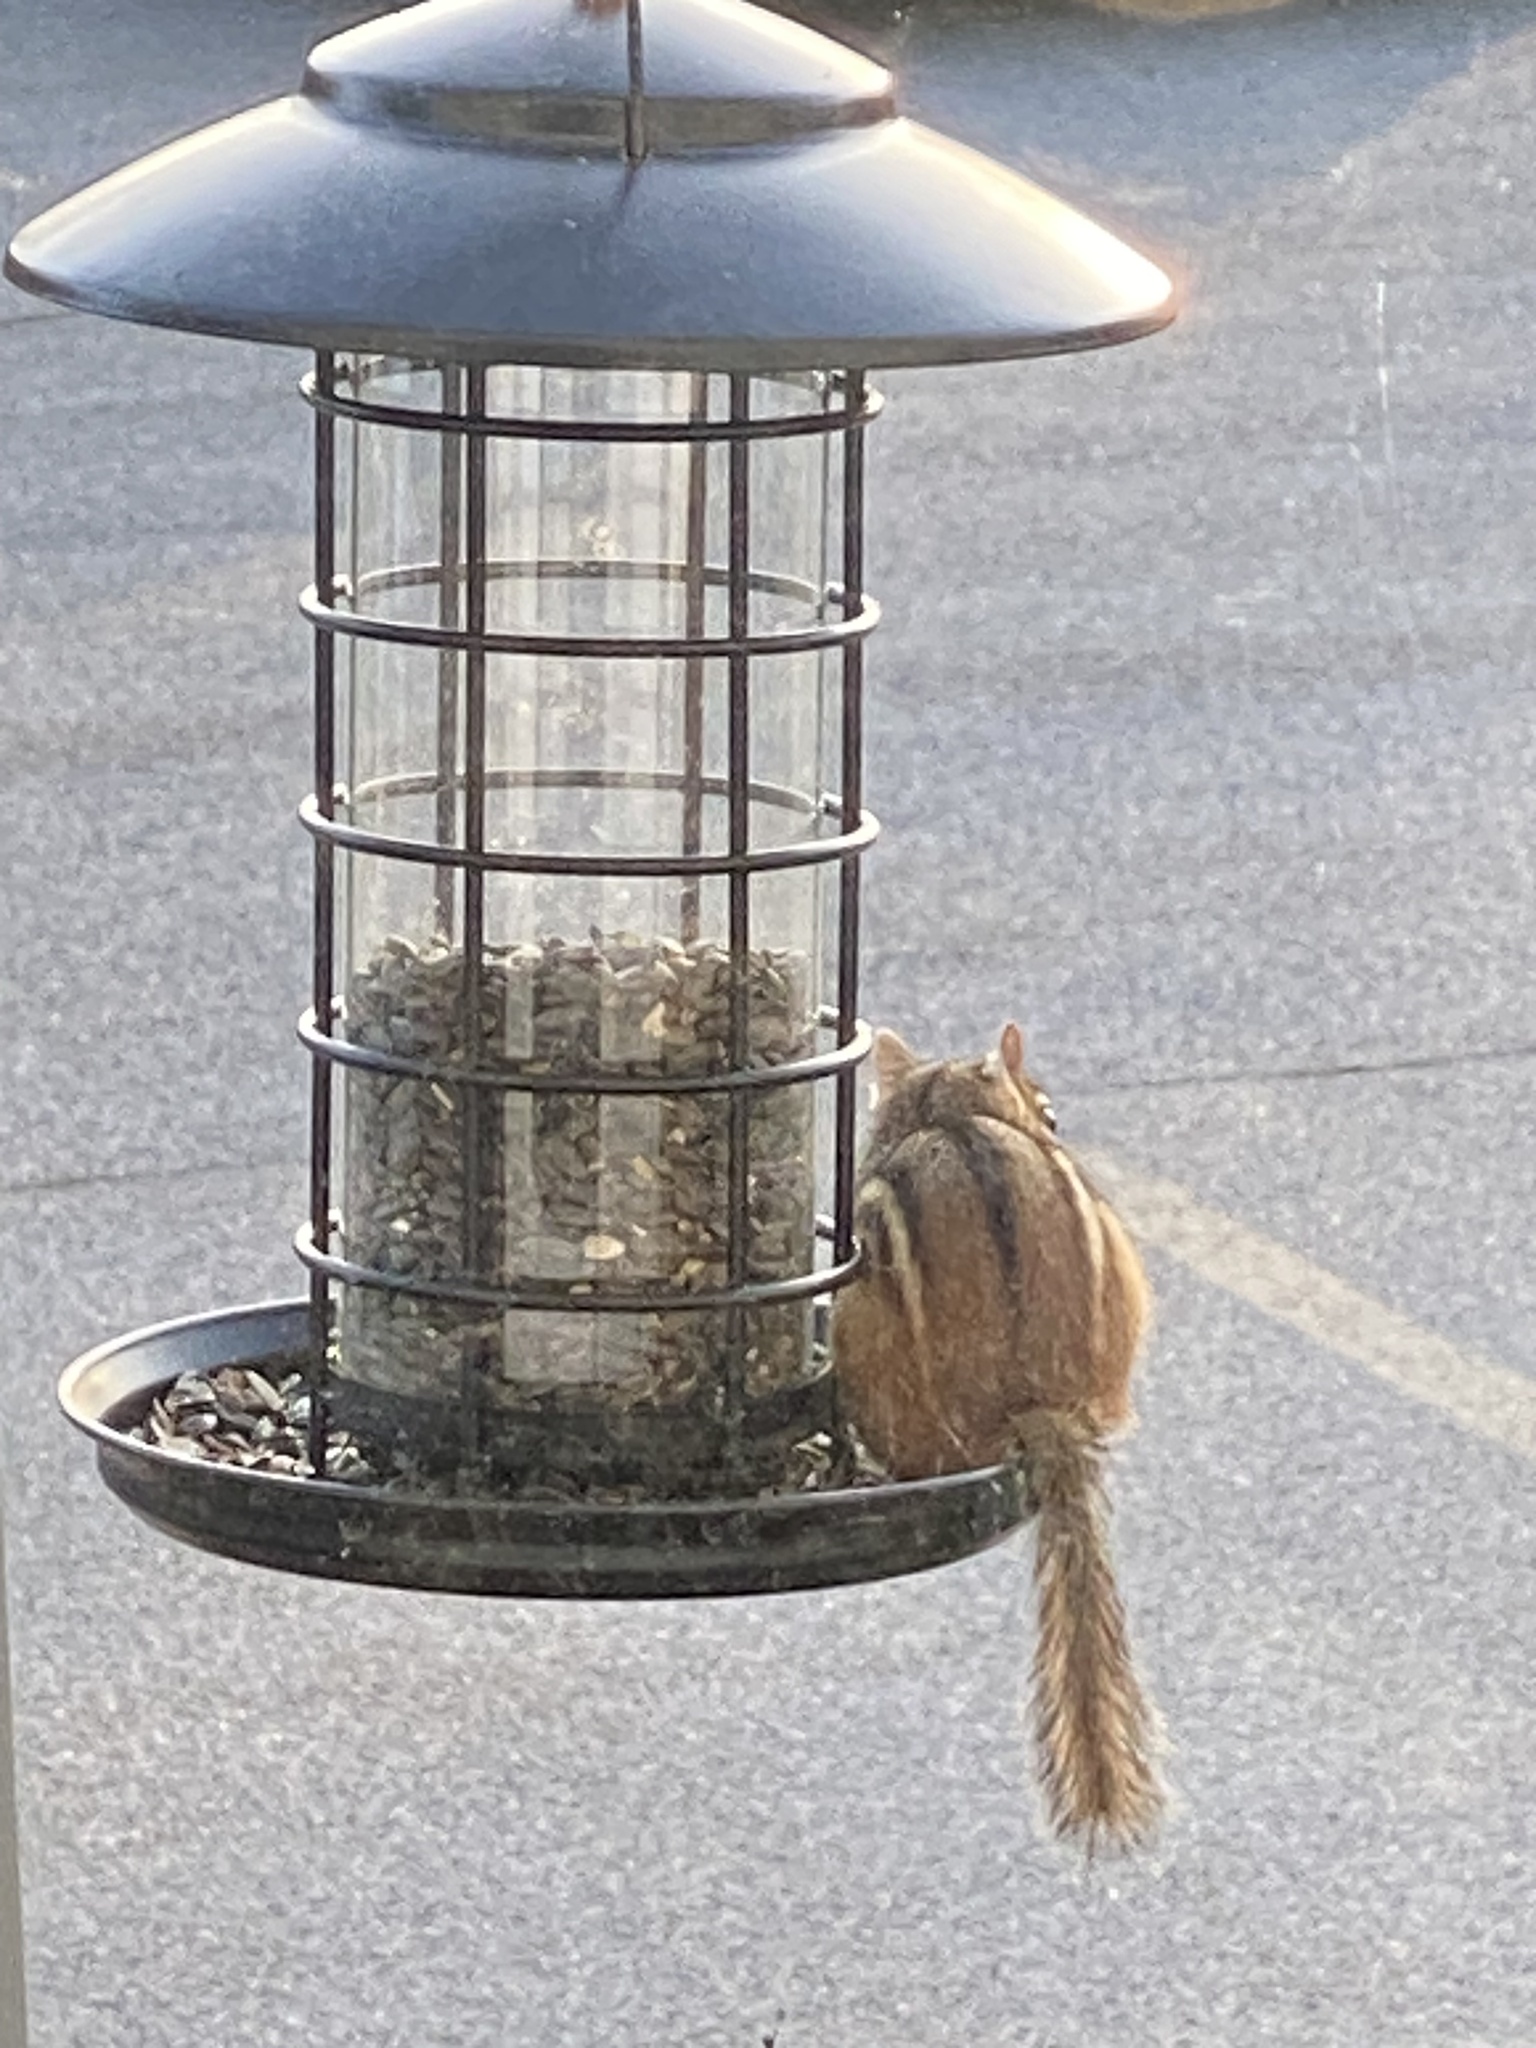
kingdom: Animalia
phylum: Chordata
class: Mammalia
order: Rodentia
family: Sciuridae
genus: Tamias
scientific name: Tamias striatus
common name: Eastern chipmunk
